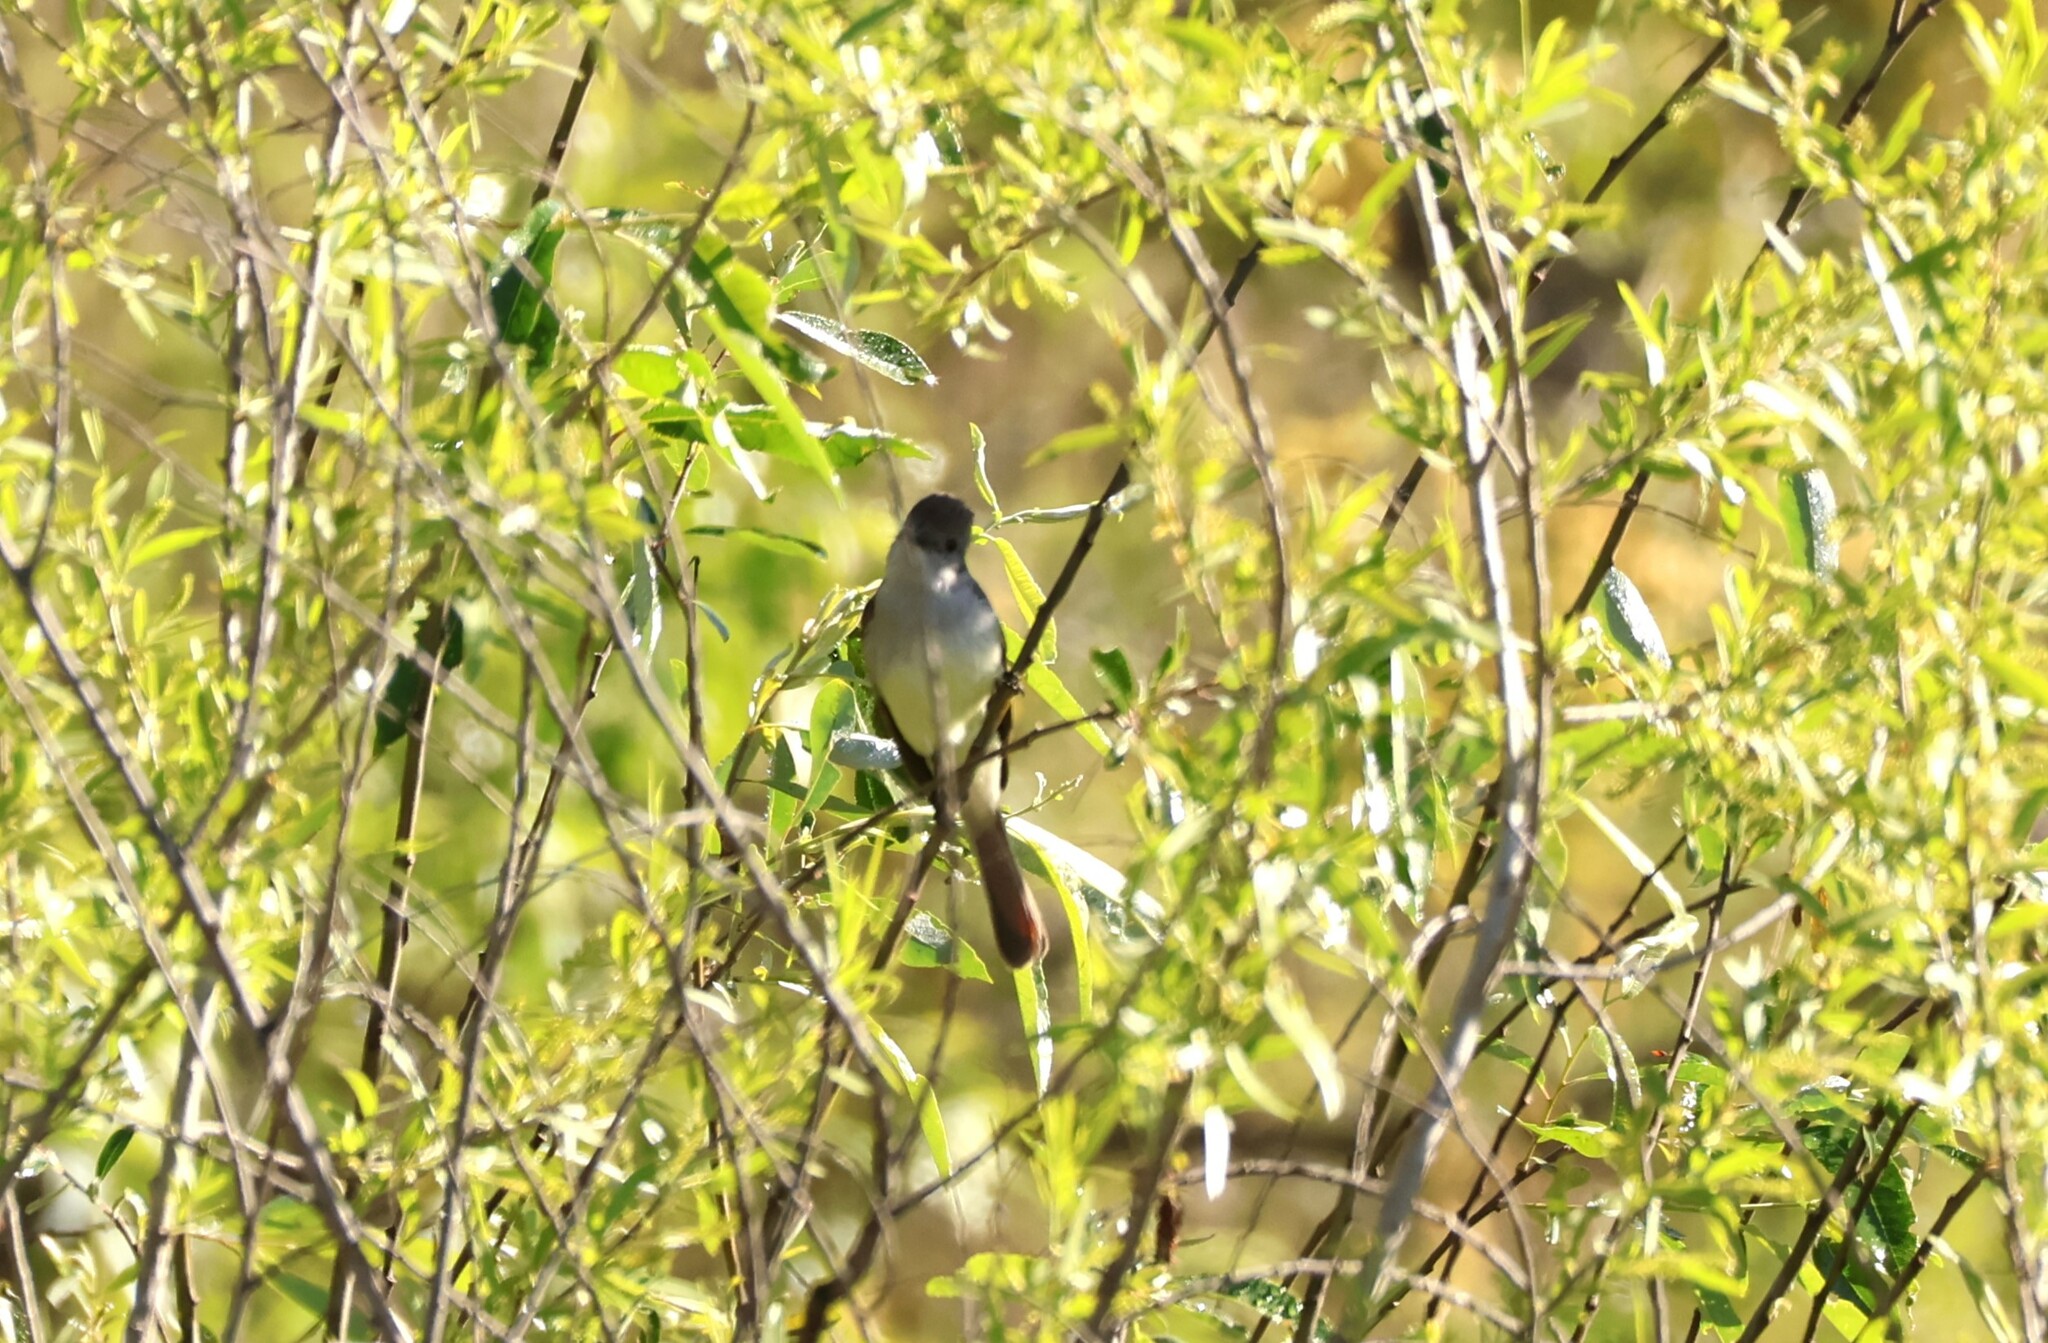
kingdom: Animalia
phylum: Chordata
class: Aves
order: Passeriformes
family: Tyrannidae
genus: Myiarchus
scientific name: Myiarchus cinerascens
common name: Ash-throated flycatcher
